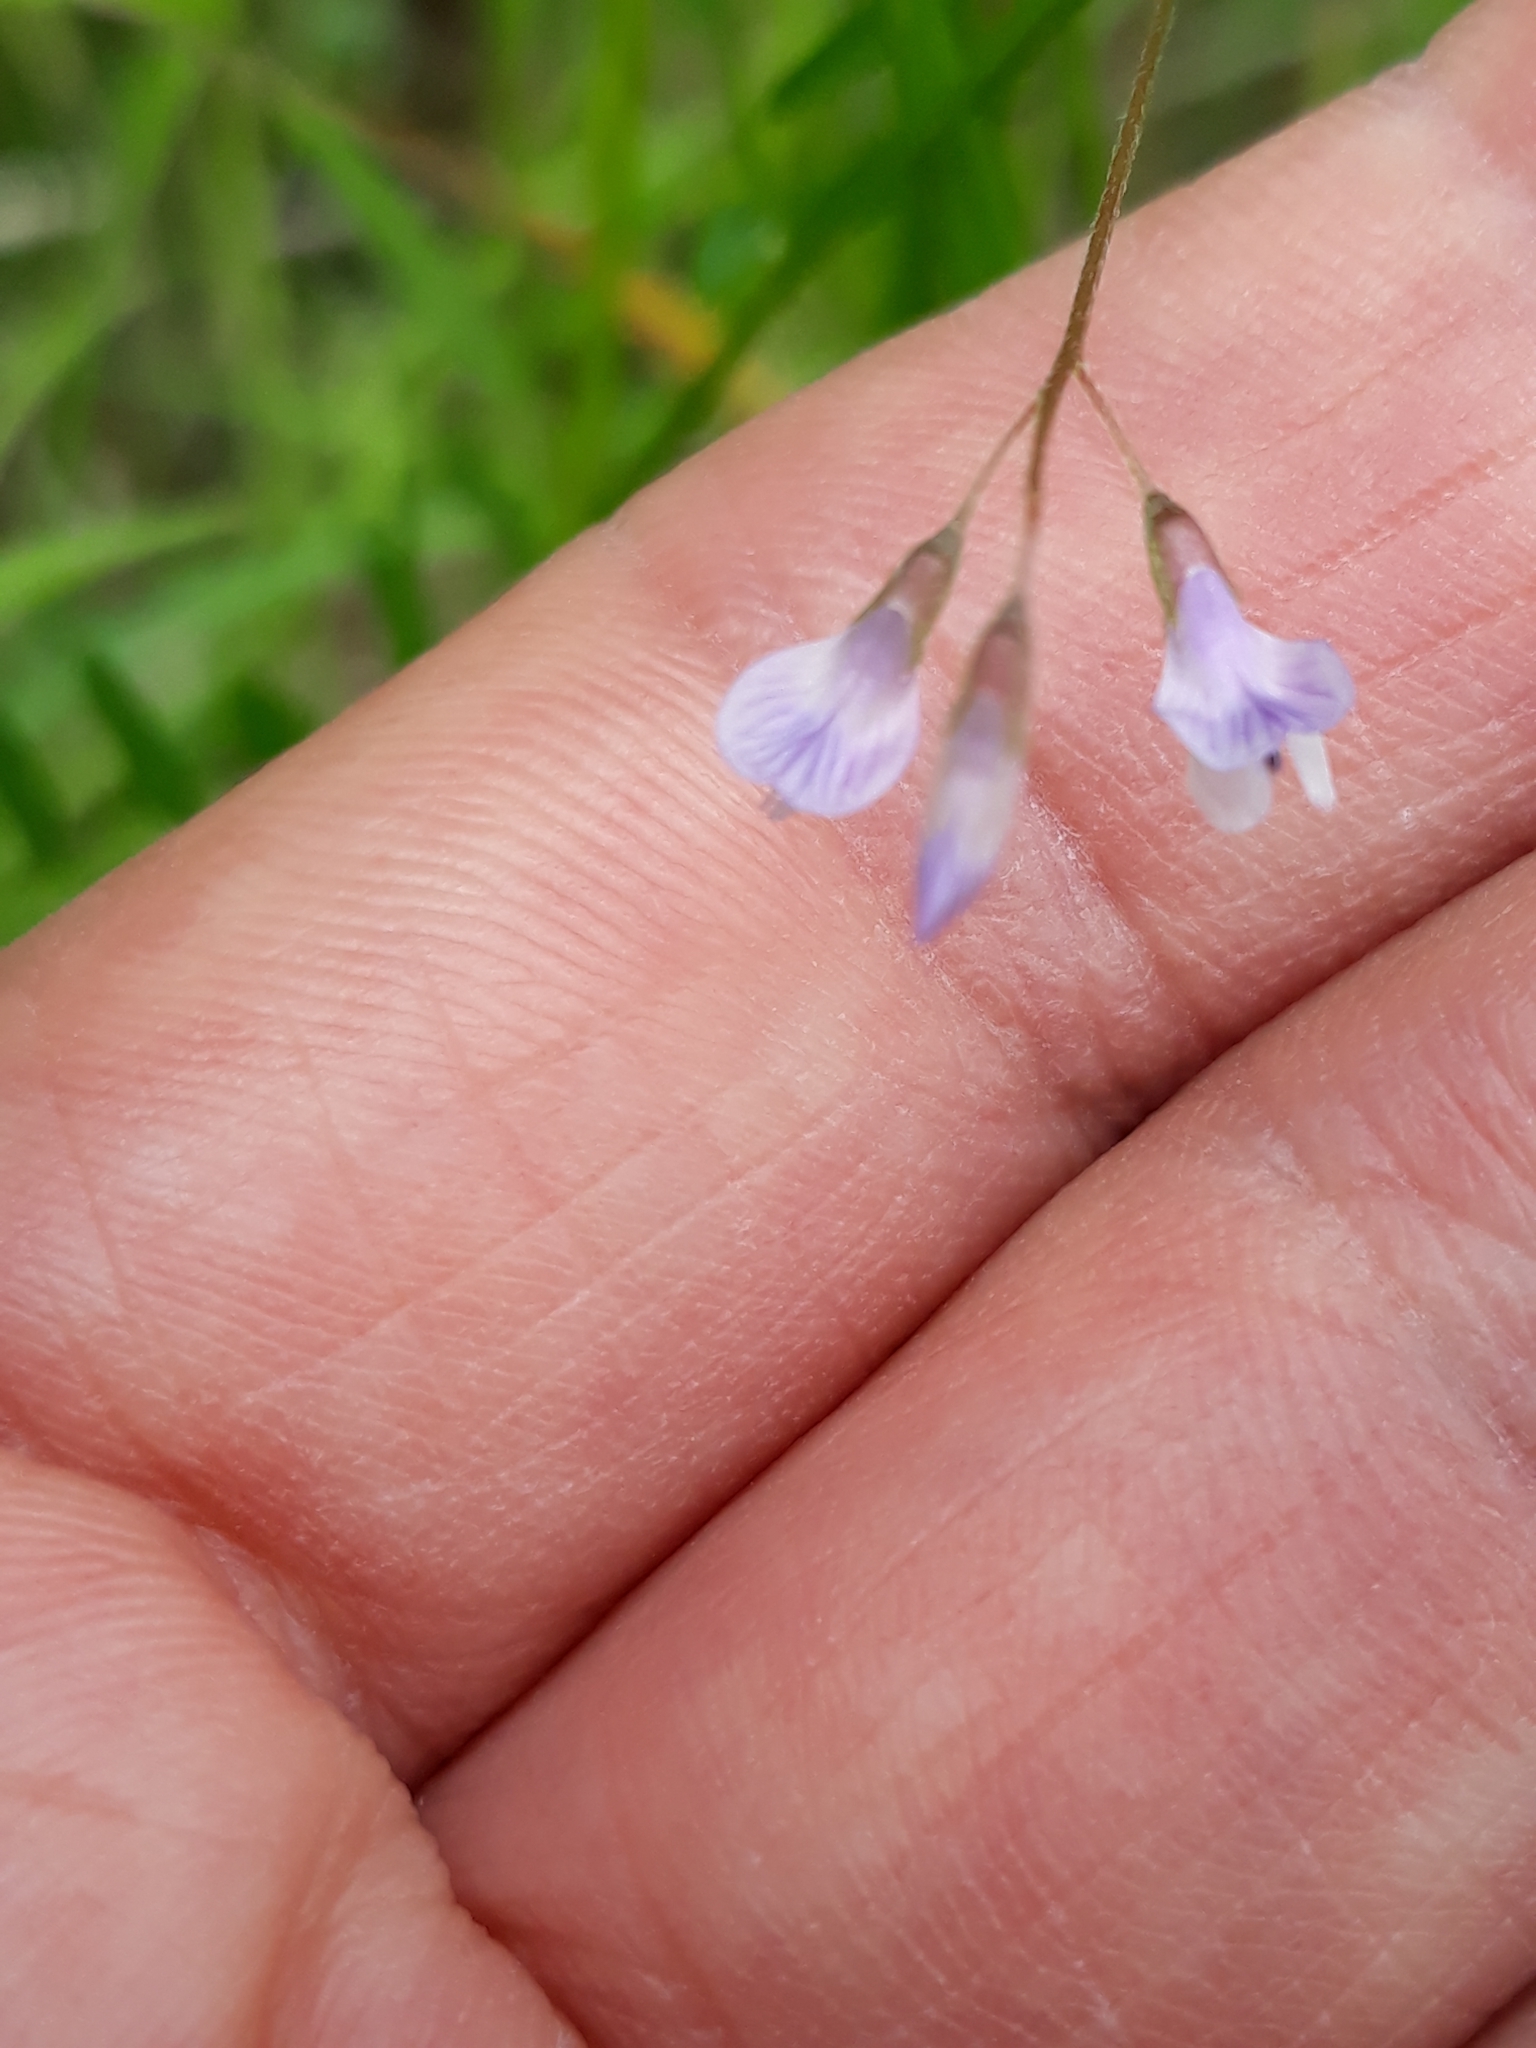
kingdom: Plantae
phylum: Tracheophyta
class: Magnoliopsida
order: Fabales
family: Fabaceae
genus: Vicia
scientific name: Vicia tetrasperma
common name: Smooth tare
